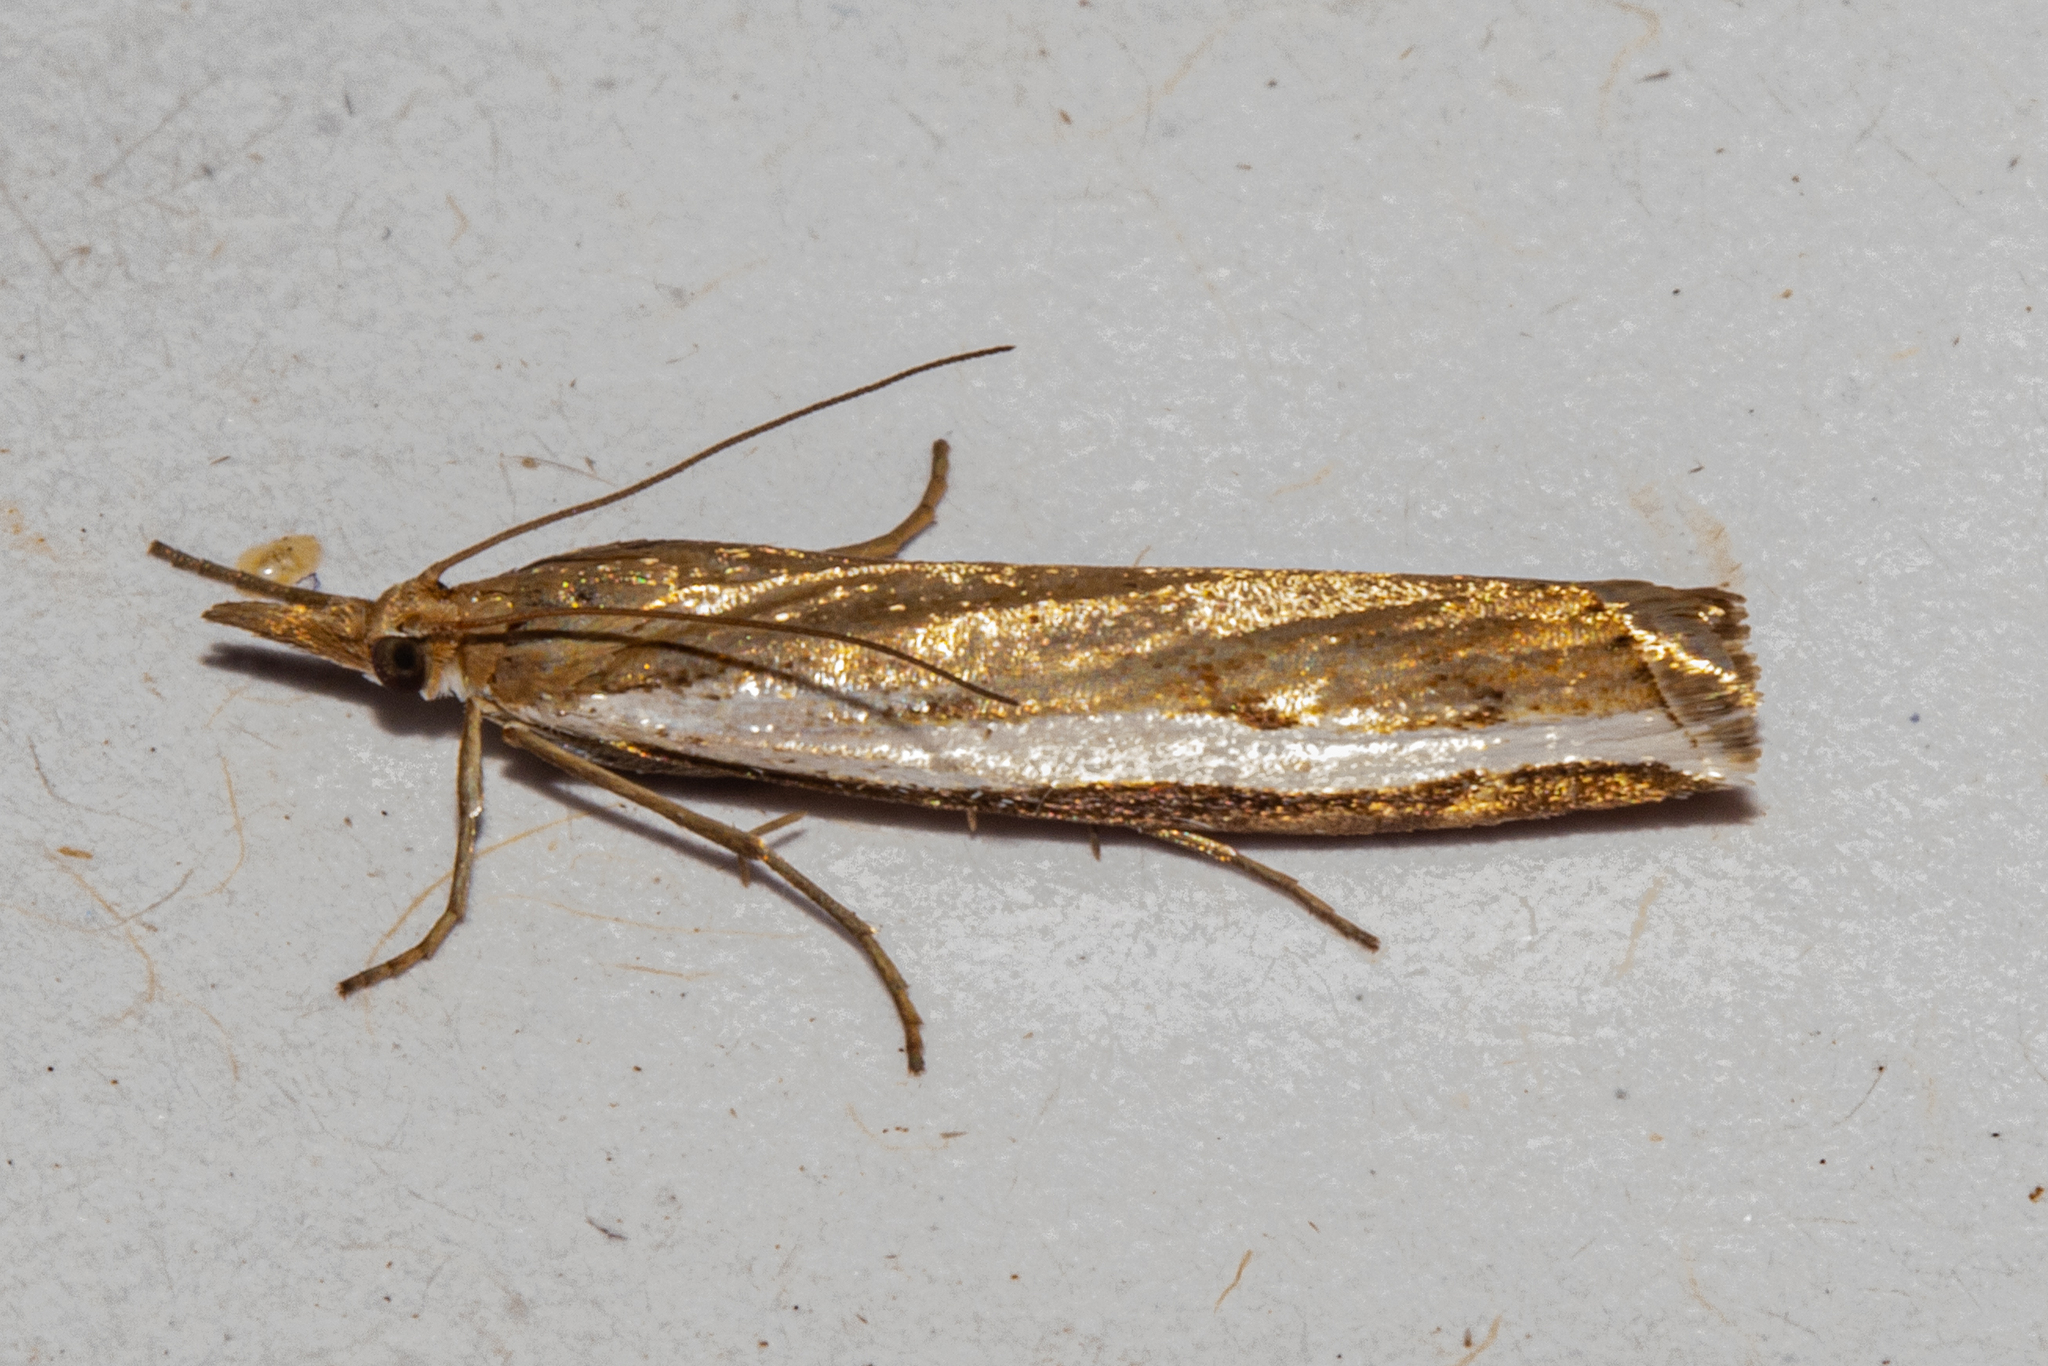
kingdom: Animalia
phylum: Arthropoda
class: Insecta
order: Lepidoptera
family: Crambidae
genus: Orocrambus
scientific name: Orocrambus flexuosellus
